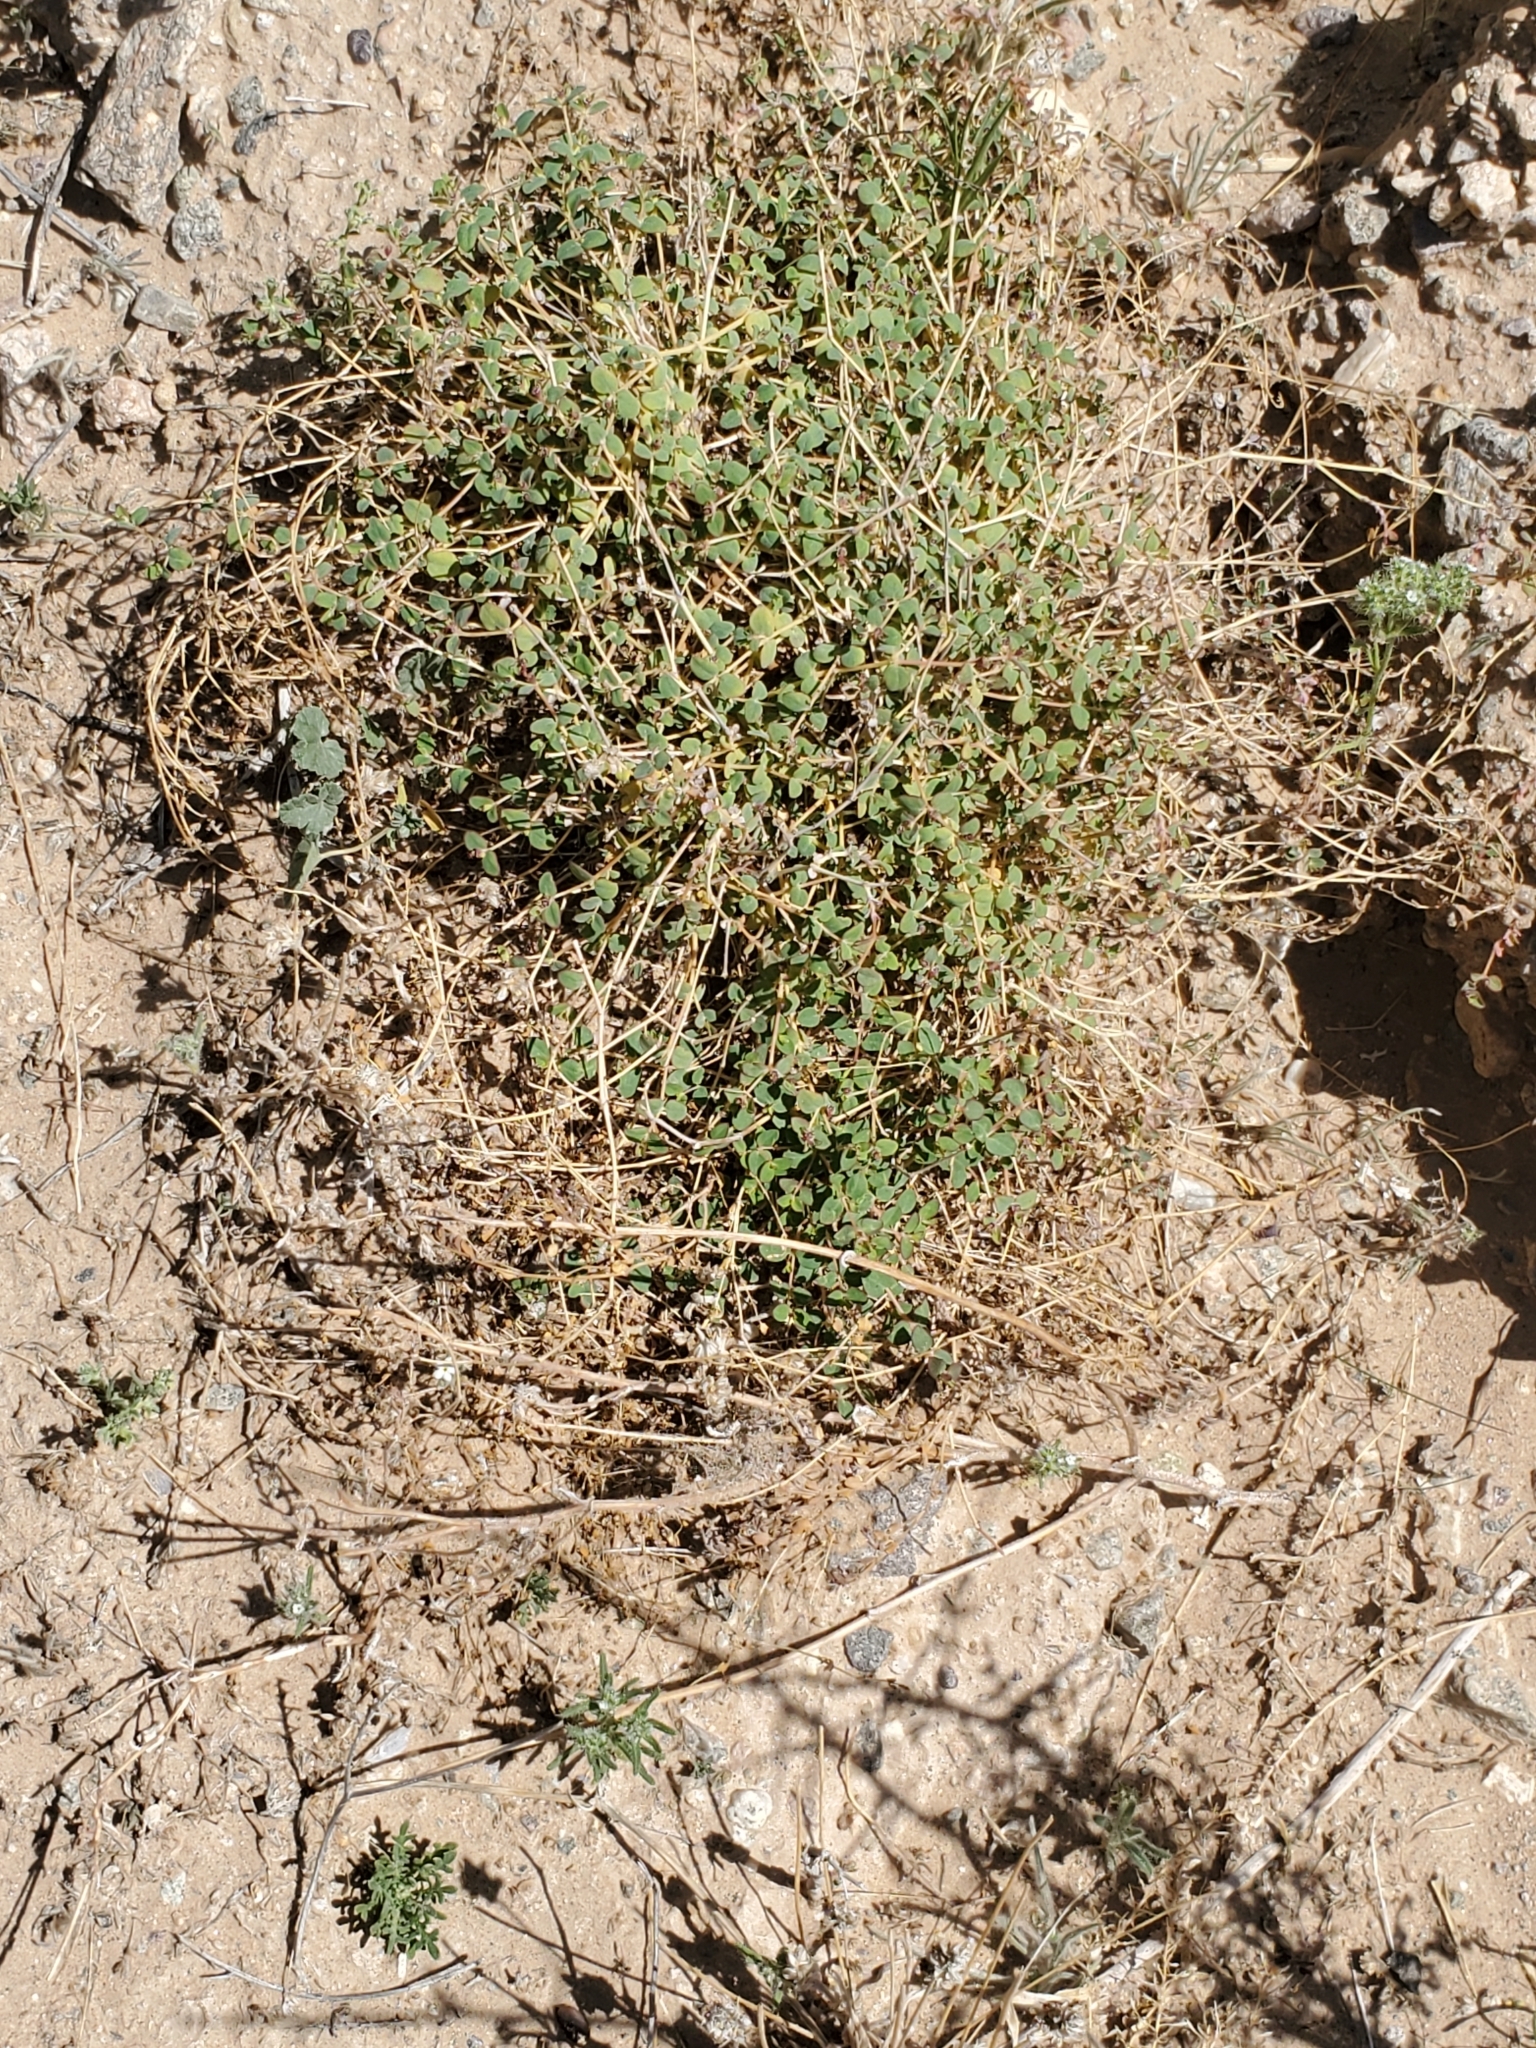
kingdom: Plantae
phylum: Tracheophyta
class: Magnoliopsida
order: Malpighiales
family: Euphorbiaceae
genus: Euphorbia
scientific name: Euphorbia polycarpa
